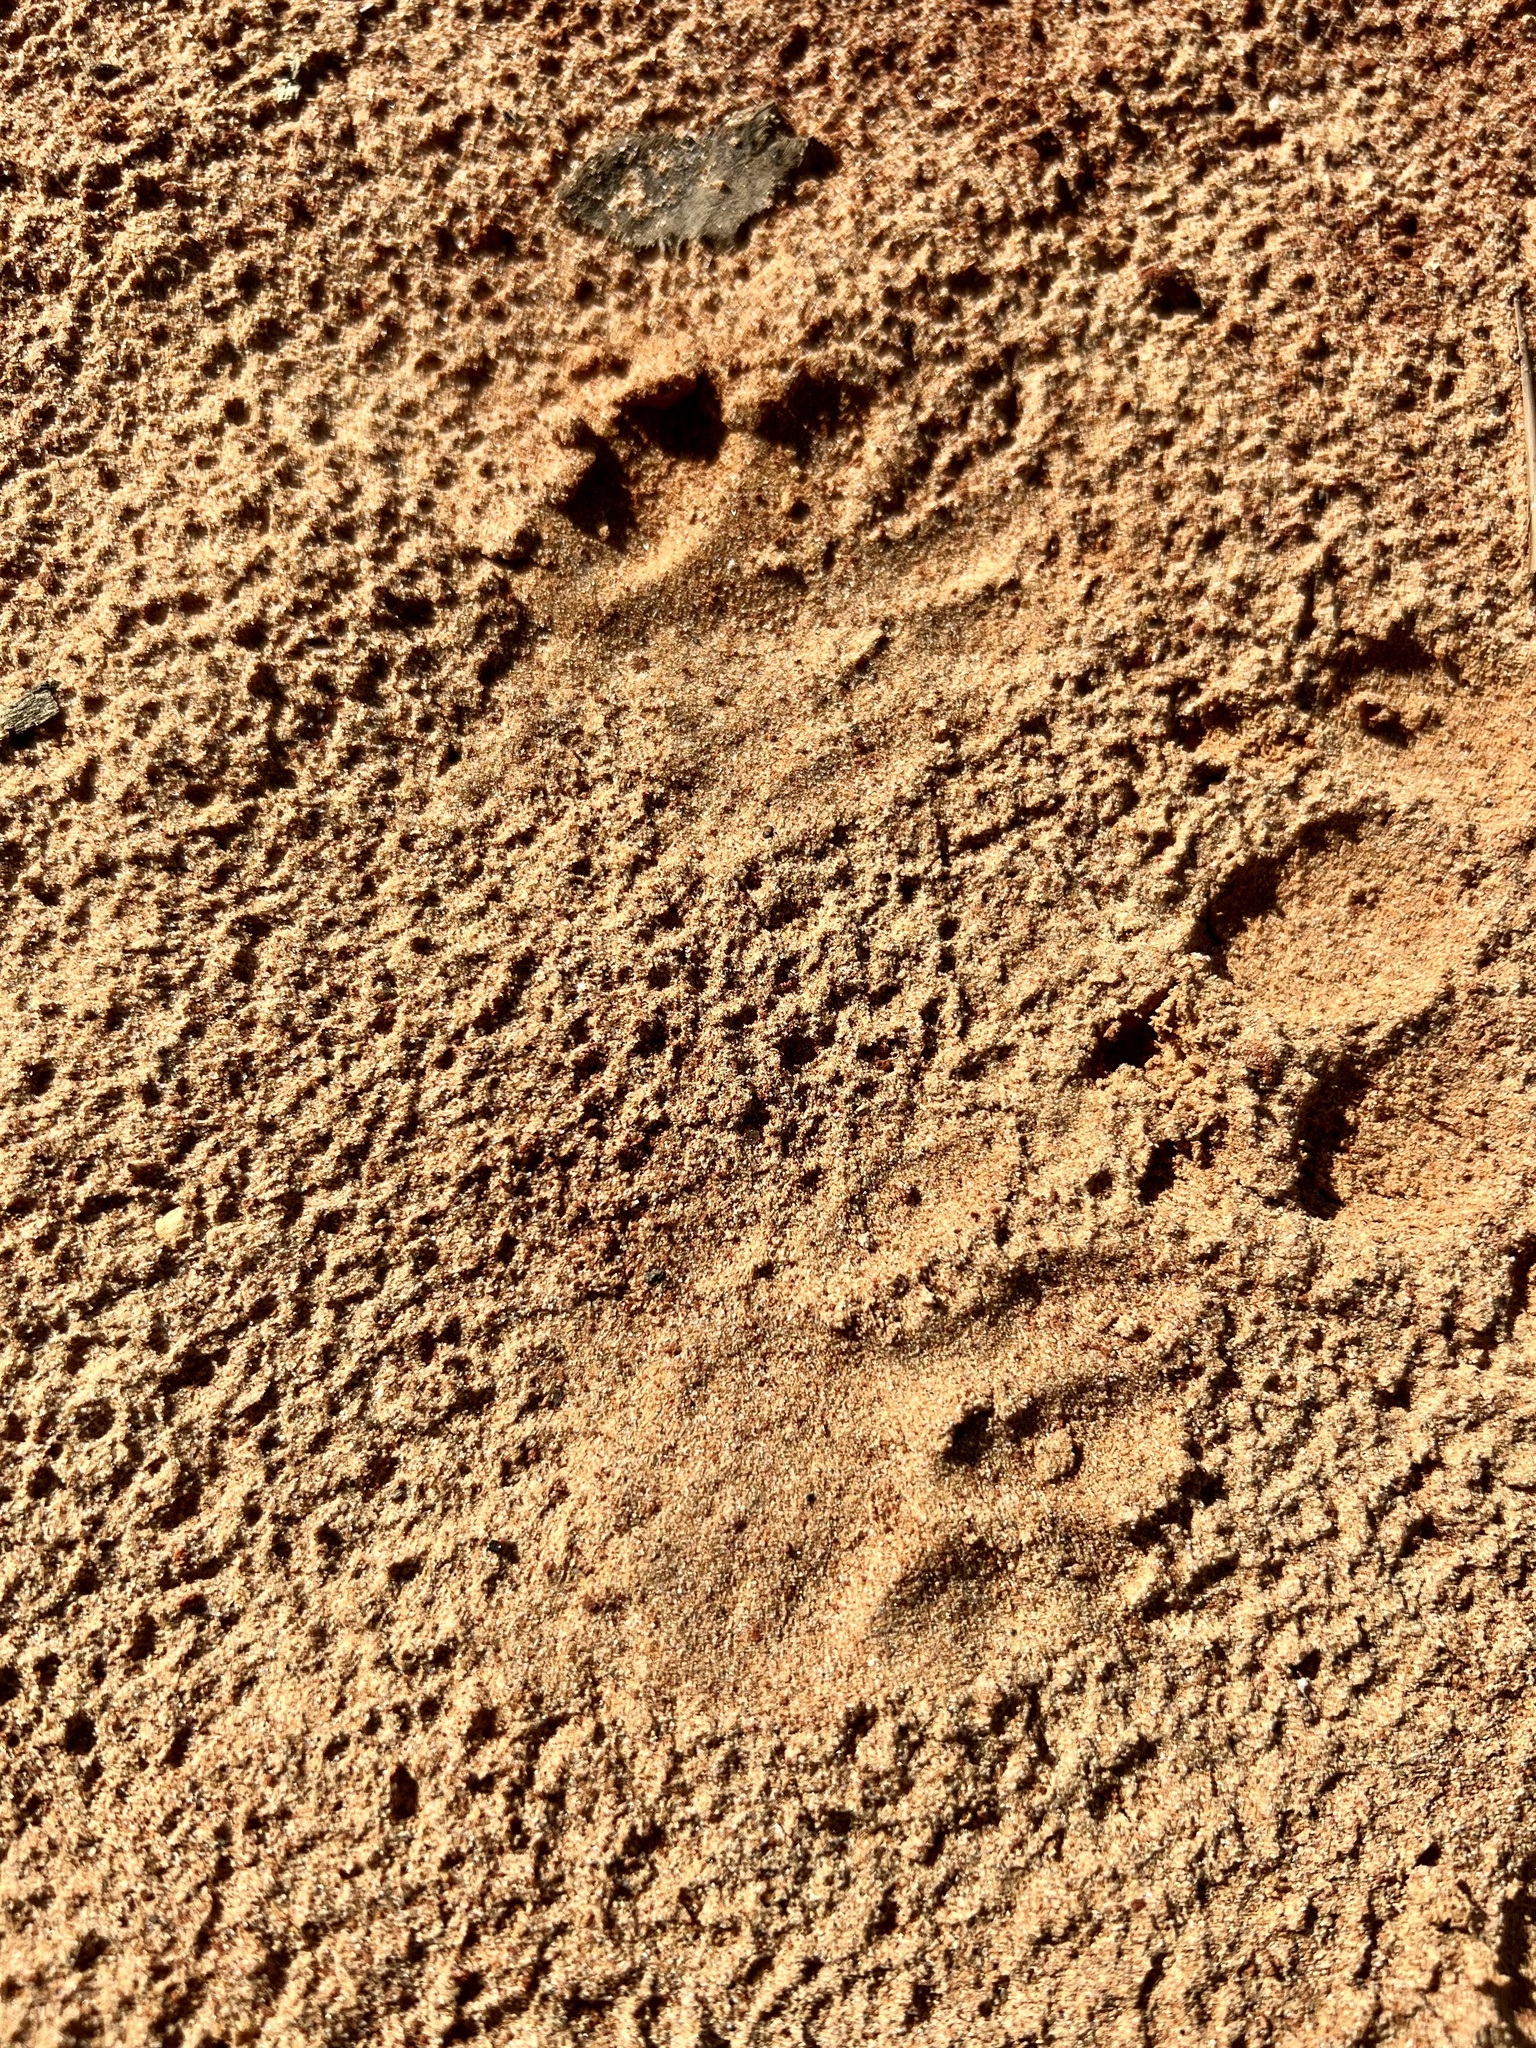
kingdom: Animalia
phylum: Chordata
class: Mammalia
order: Cingulata
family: Dasypodidae
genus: Dasypus
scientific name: Dasypus novemcinctus
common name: Nine-banded armadillo
